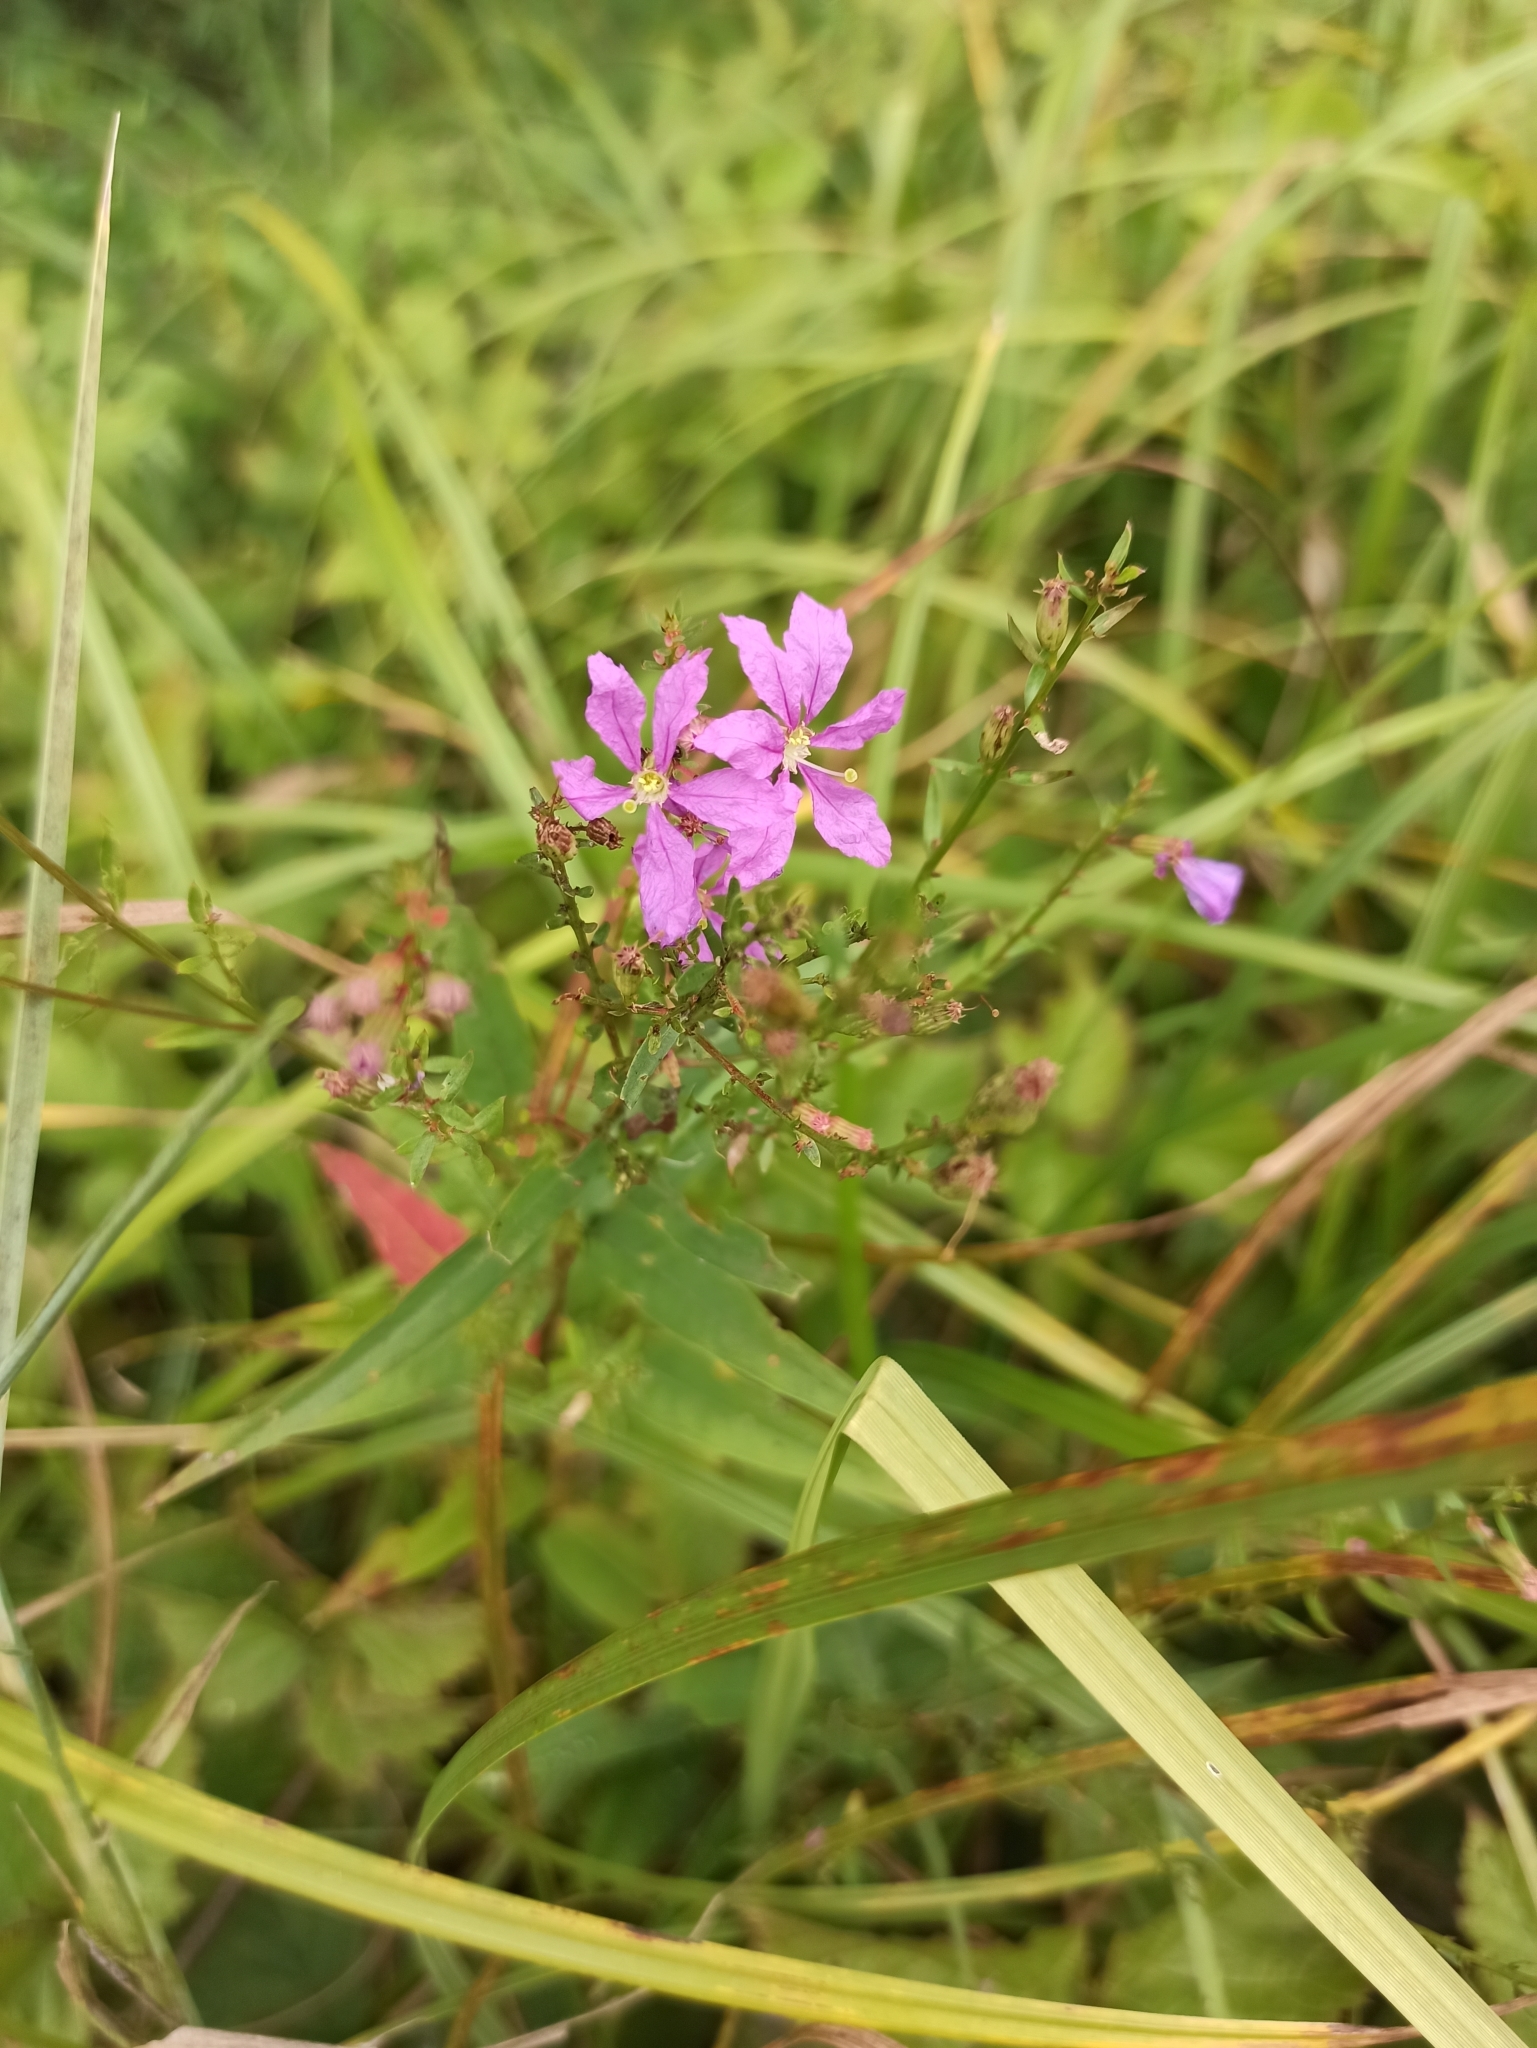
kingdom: Plantae
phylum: Tracheophyta
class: Magnoliopsida
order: Myrtales
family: Lythraceae
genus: Lythrum
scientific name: Lythrum salicaria
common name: Purple loosestrife
